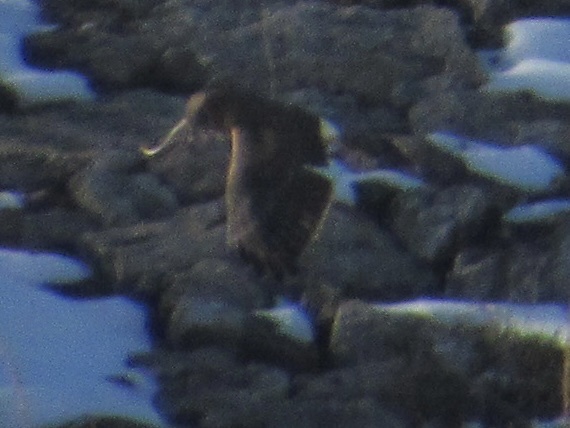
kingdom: Animalia
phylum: Chordata
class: Aves
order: Accipitriformes
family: Accipitridae
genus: Circus
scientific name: Circus cyaneus
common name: Hen harrier
